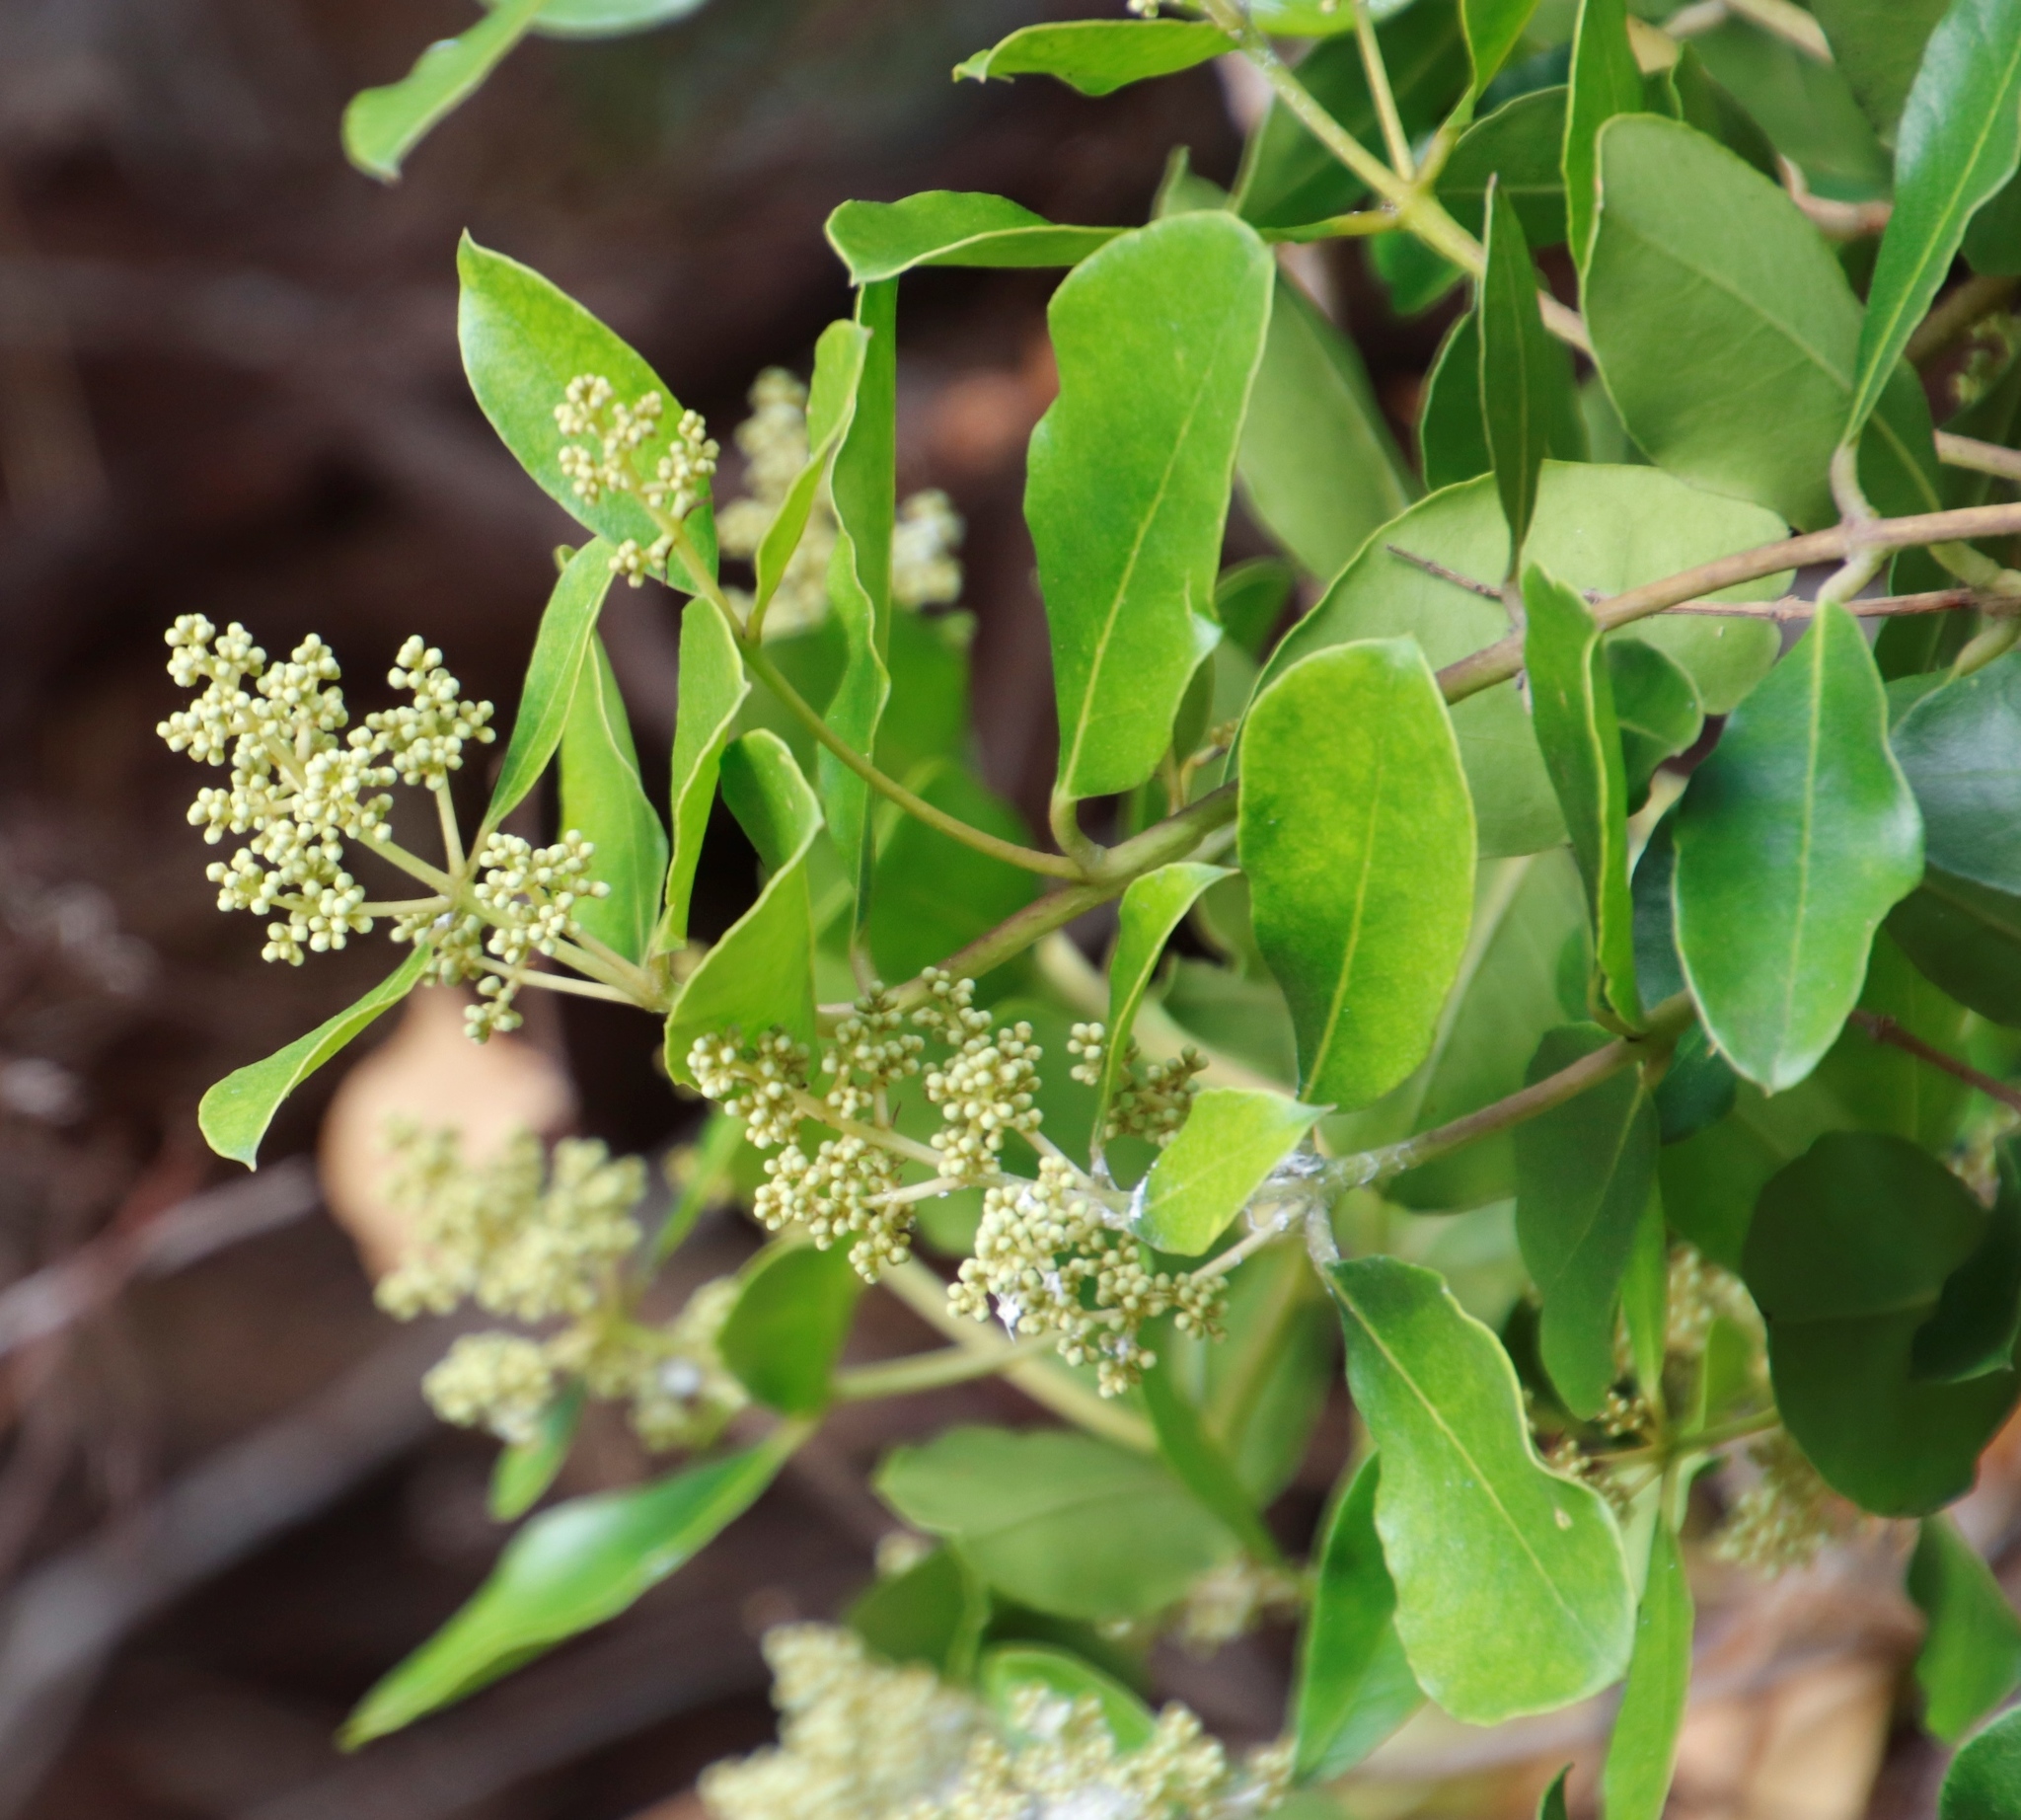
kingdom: Plantae
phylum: Tracheophyta
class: Magnoliopsida
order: Lamiales
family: Oleaceae
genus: Olea
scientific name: Olea capensis
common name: Black ironwood
